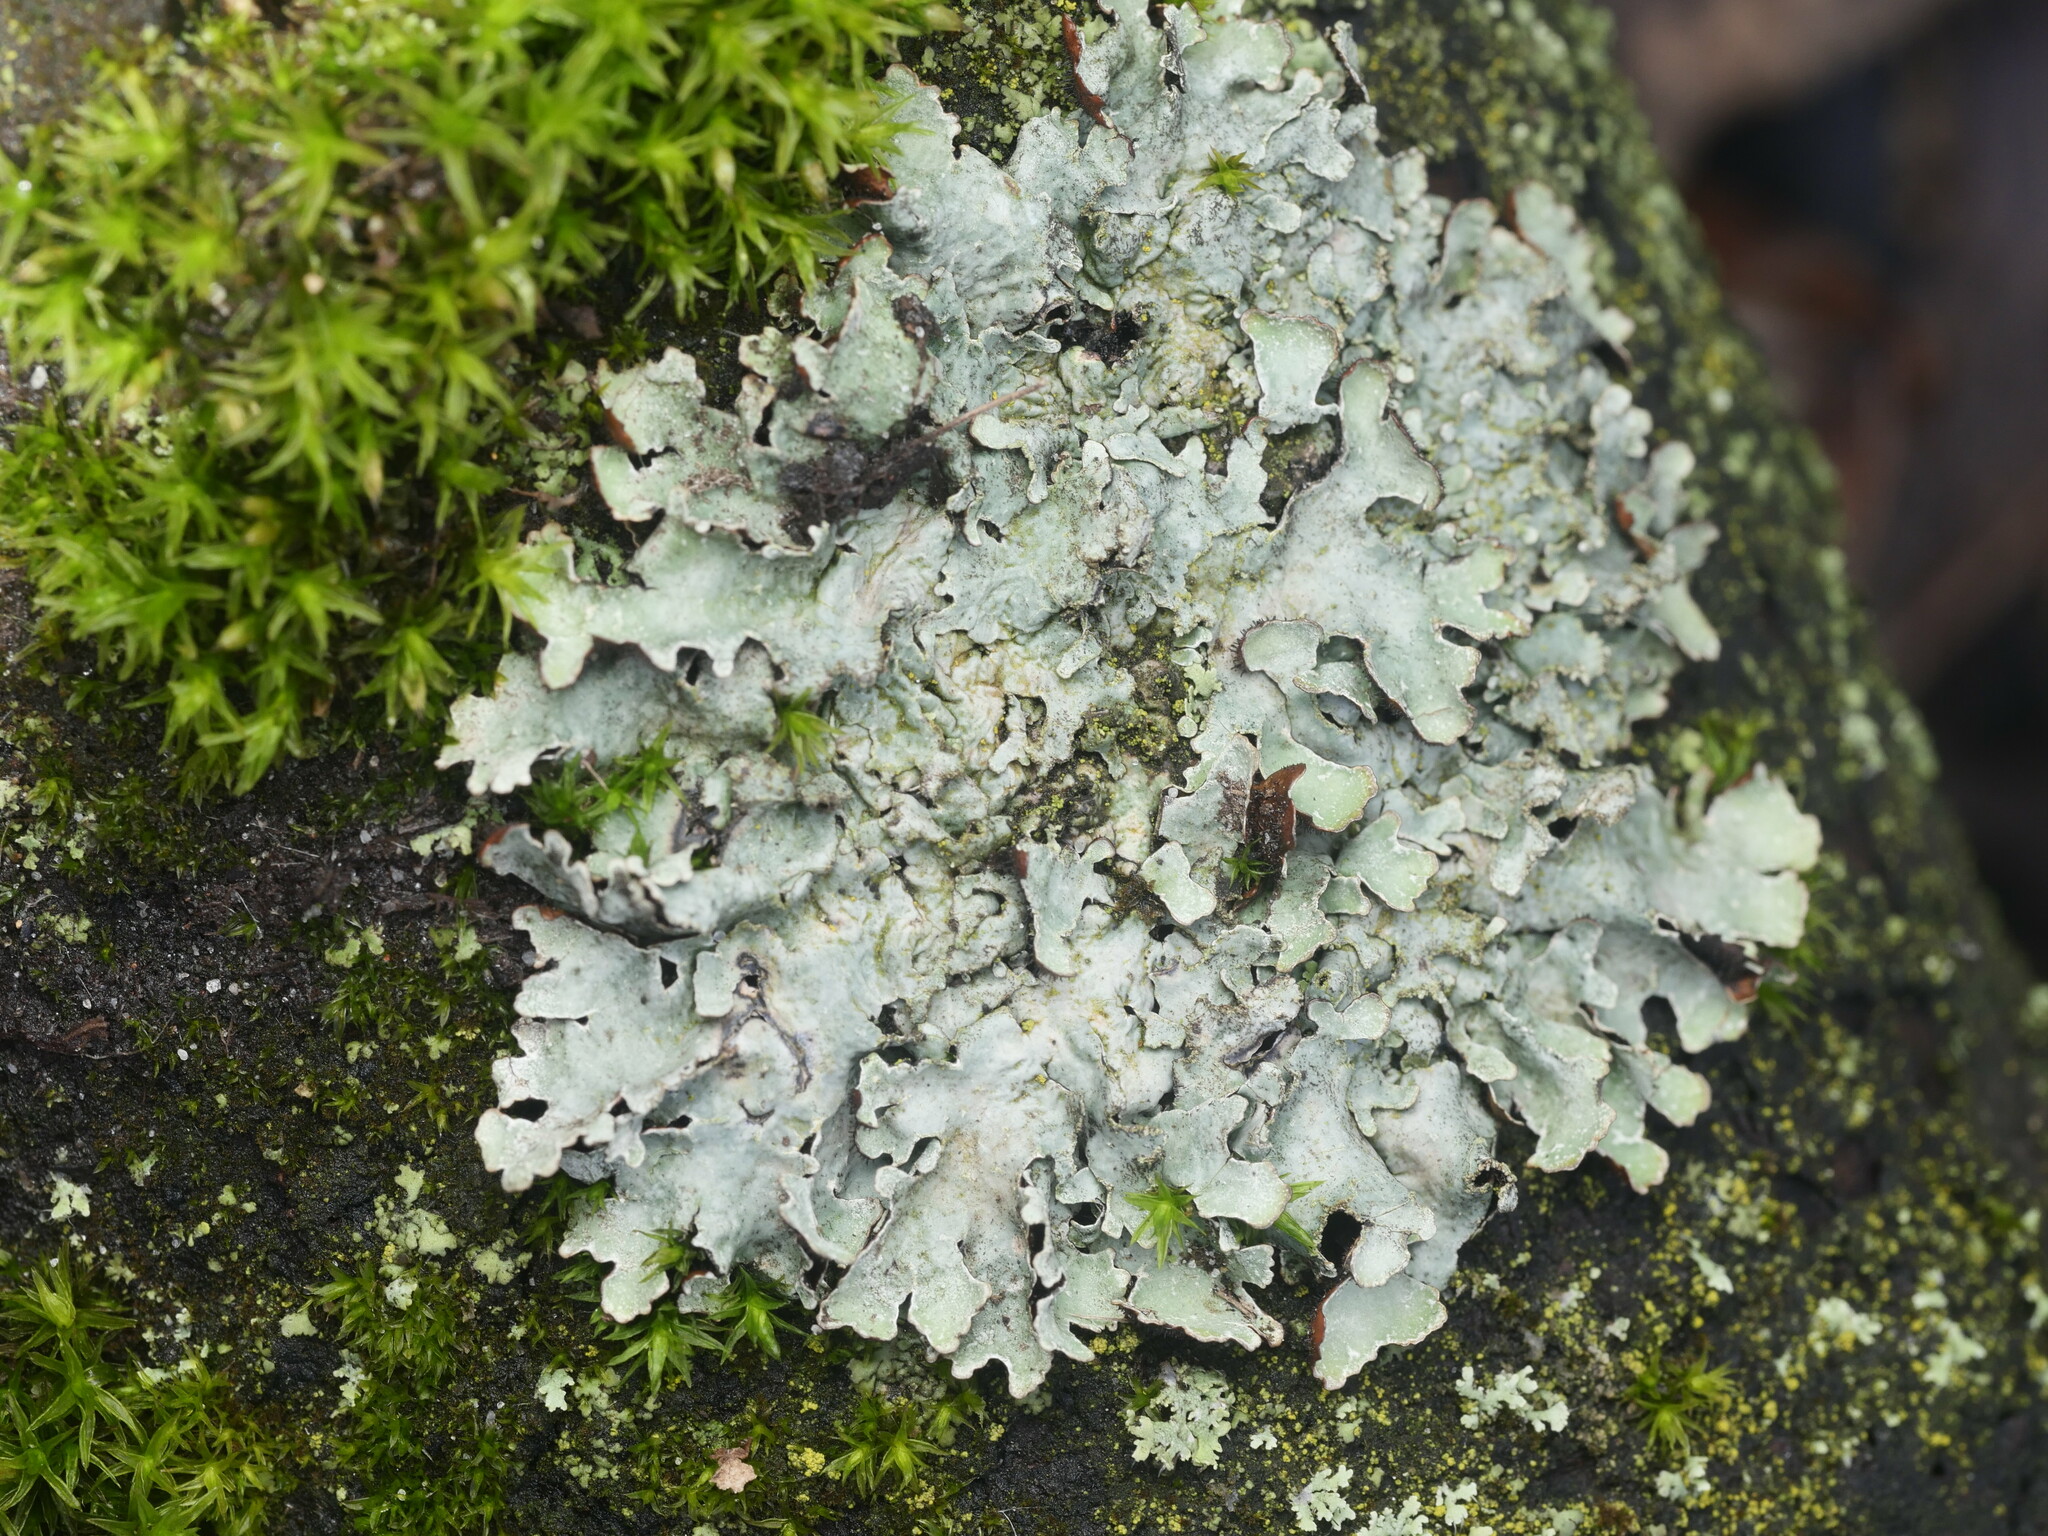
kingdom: Fungi
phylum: Ascomycota
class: Lecanoromycetes
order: Lecanorales
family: Parmeliaceae
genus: Parmelia
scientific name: Parmelia sulcata
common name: Netted shield lichen
